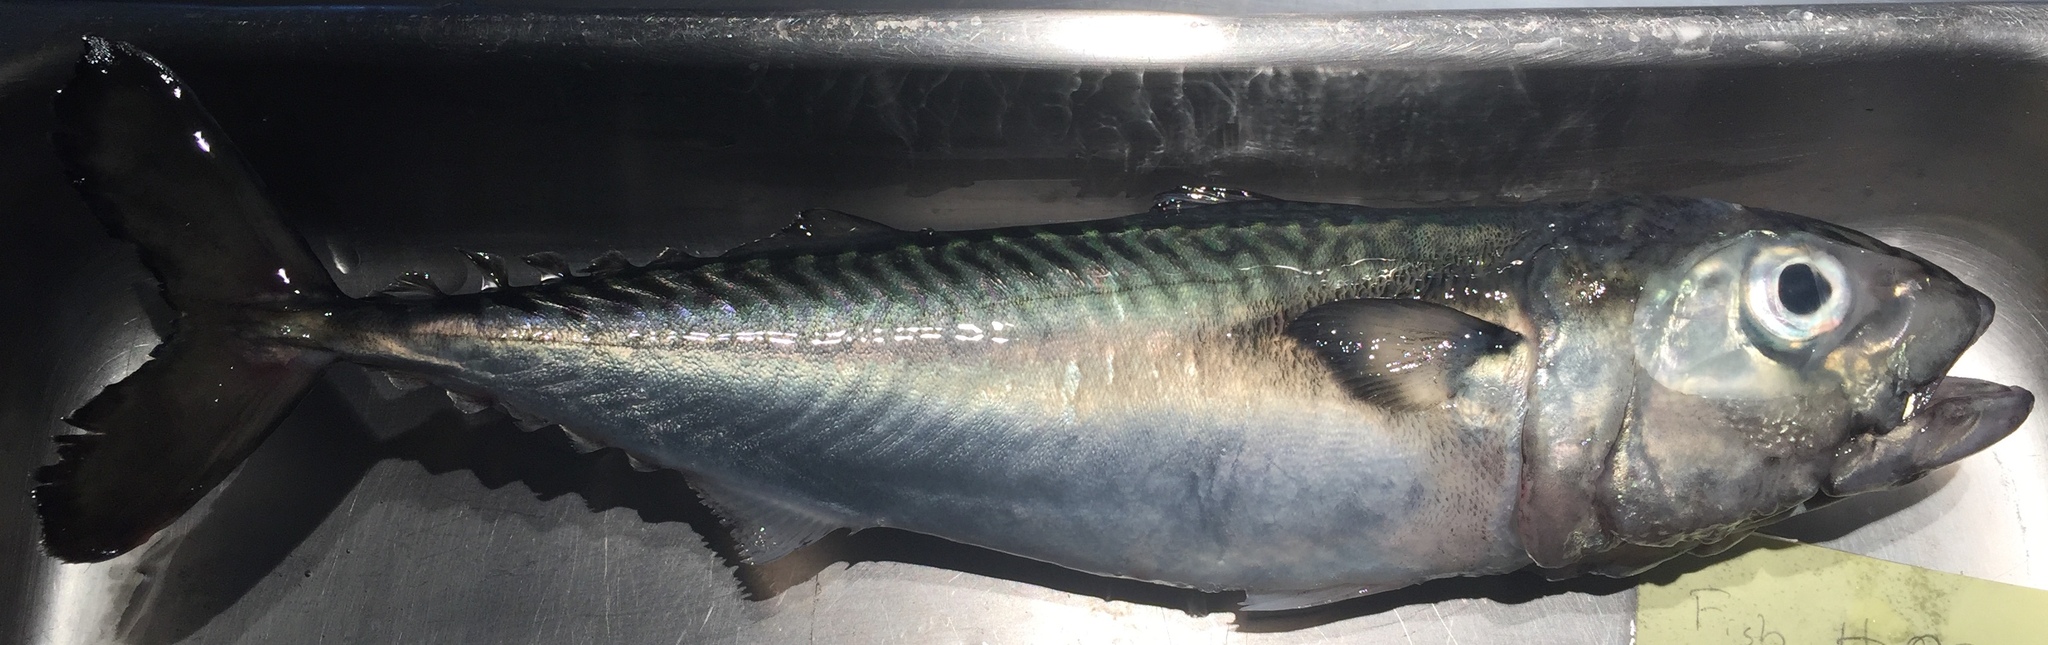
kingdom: Animalia
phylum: Chordata
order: Perciformes
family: Scombridae
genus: Scomber
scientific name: Scomber japonicus
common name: Chub mackerel
